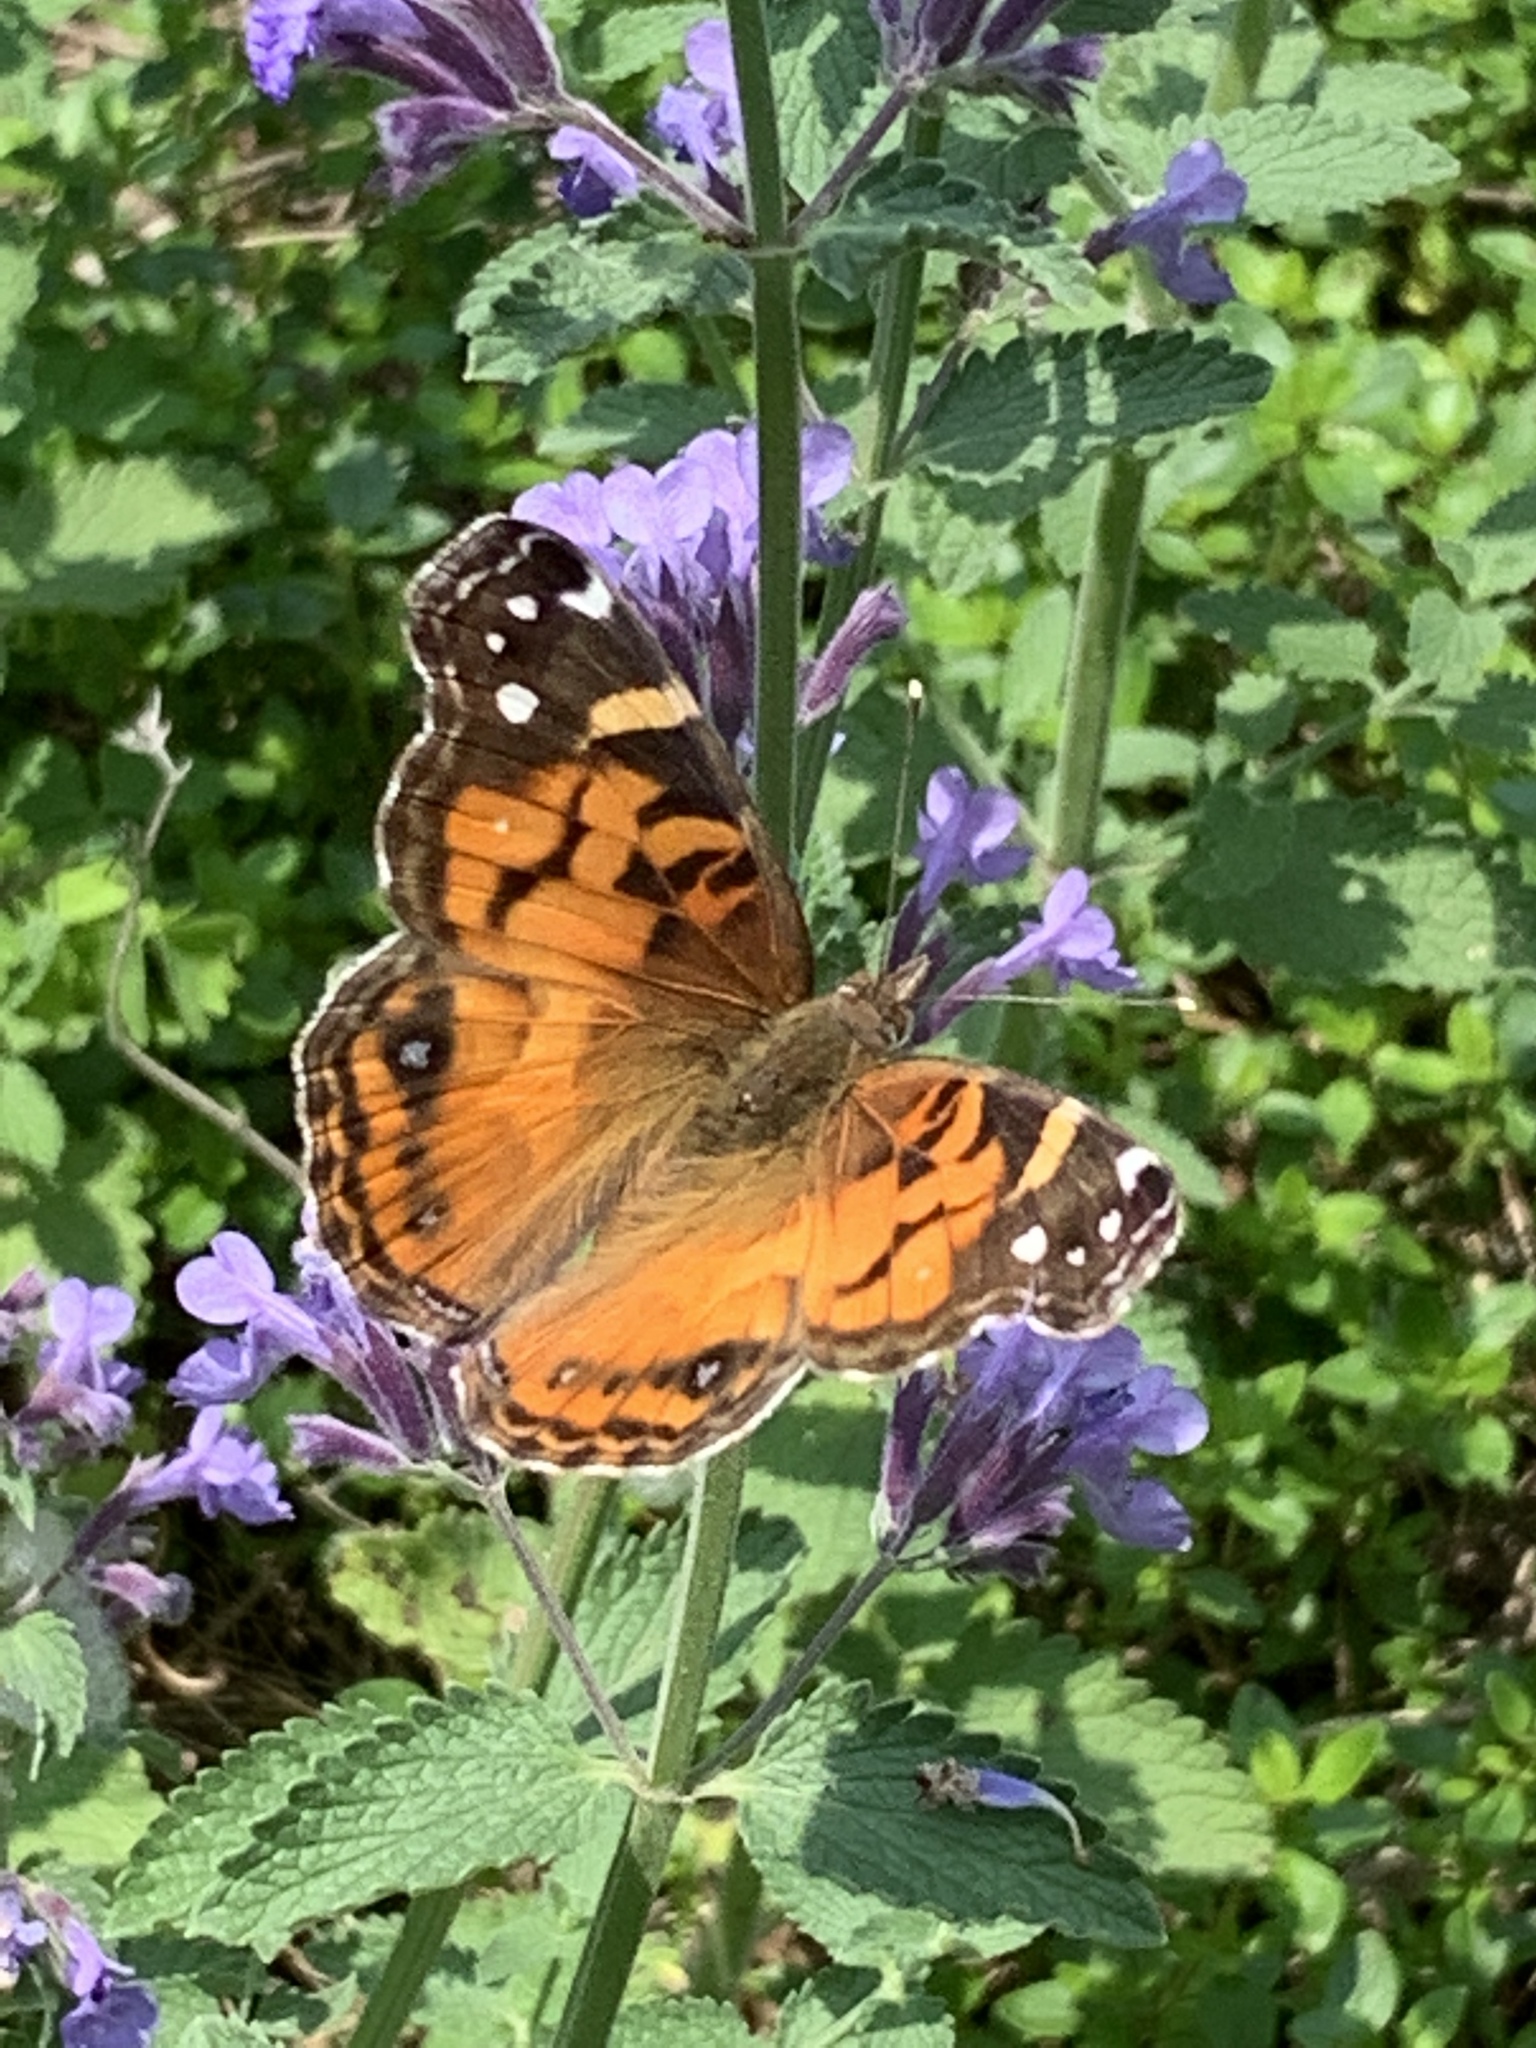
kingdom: Animalia
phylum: Arthropoda
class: Insecta
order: Lepidoptera
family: Nymphalidae
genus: Vanessa
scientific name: Vanessa virginiensis
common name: American lady
